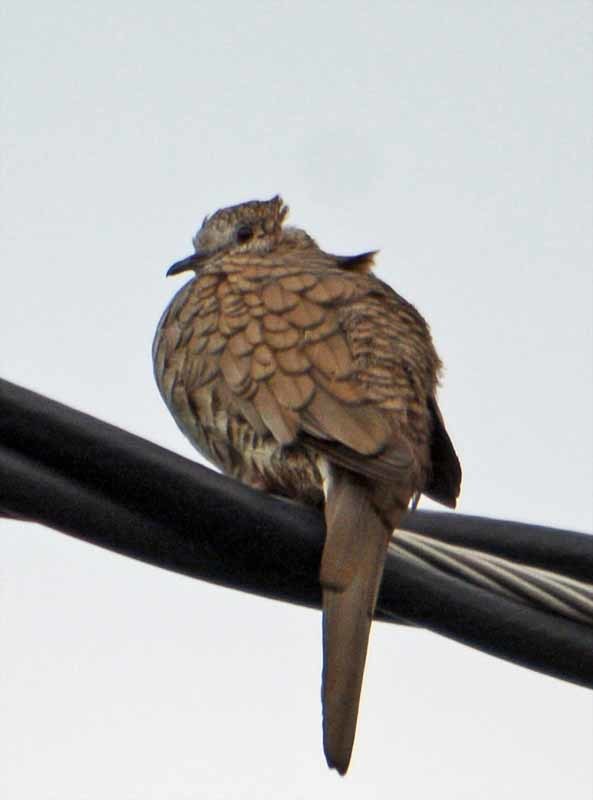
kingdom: Animalia
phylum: Chordata
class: Aves
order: Columbiformes
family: Columbidae
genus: Columbina
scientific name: Columbina inca
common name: Inca dove
